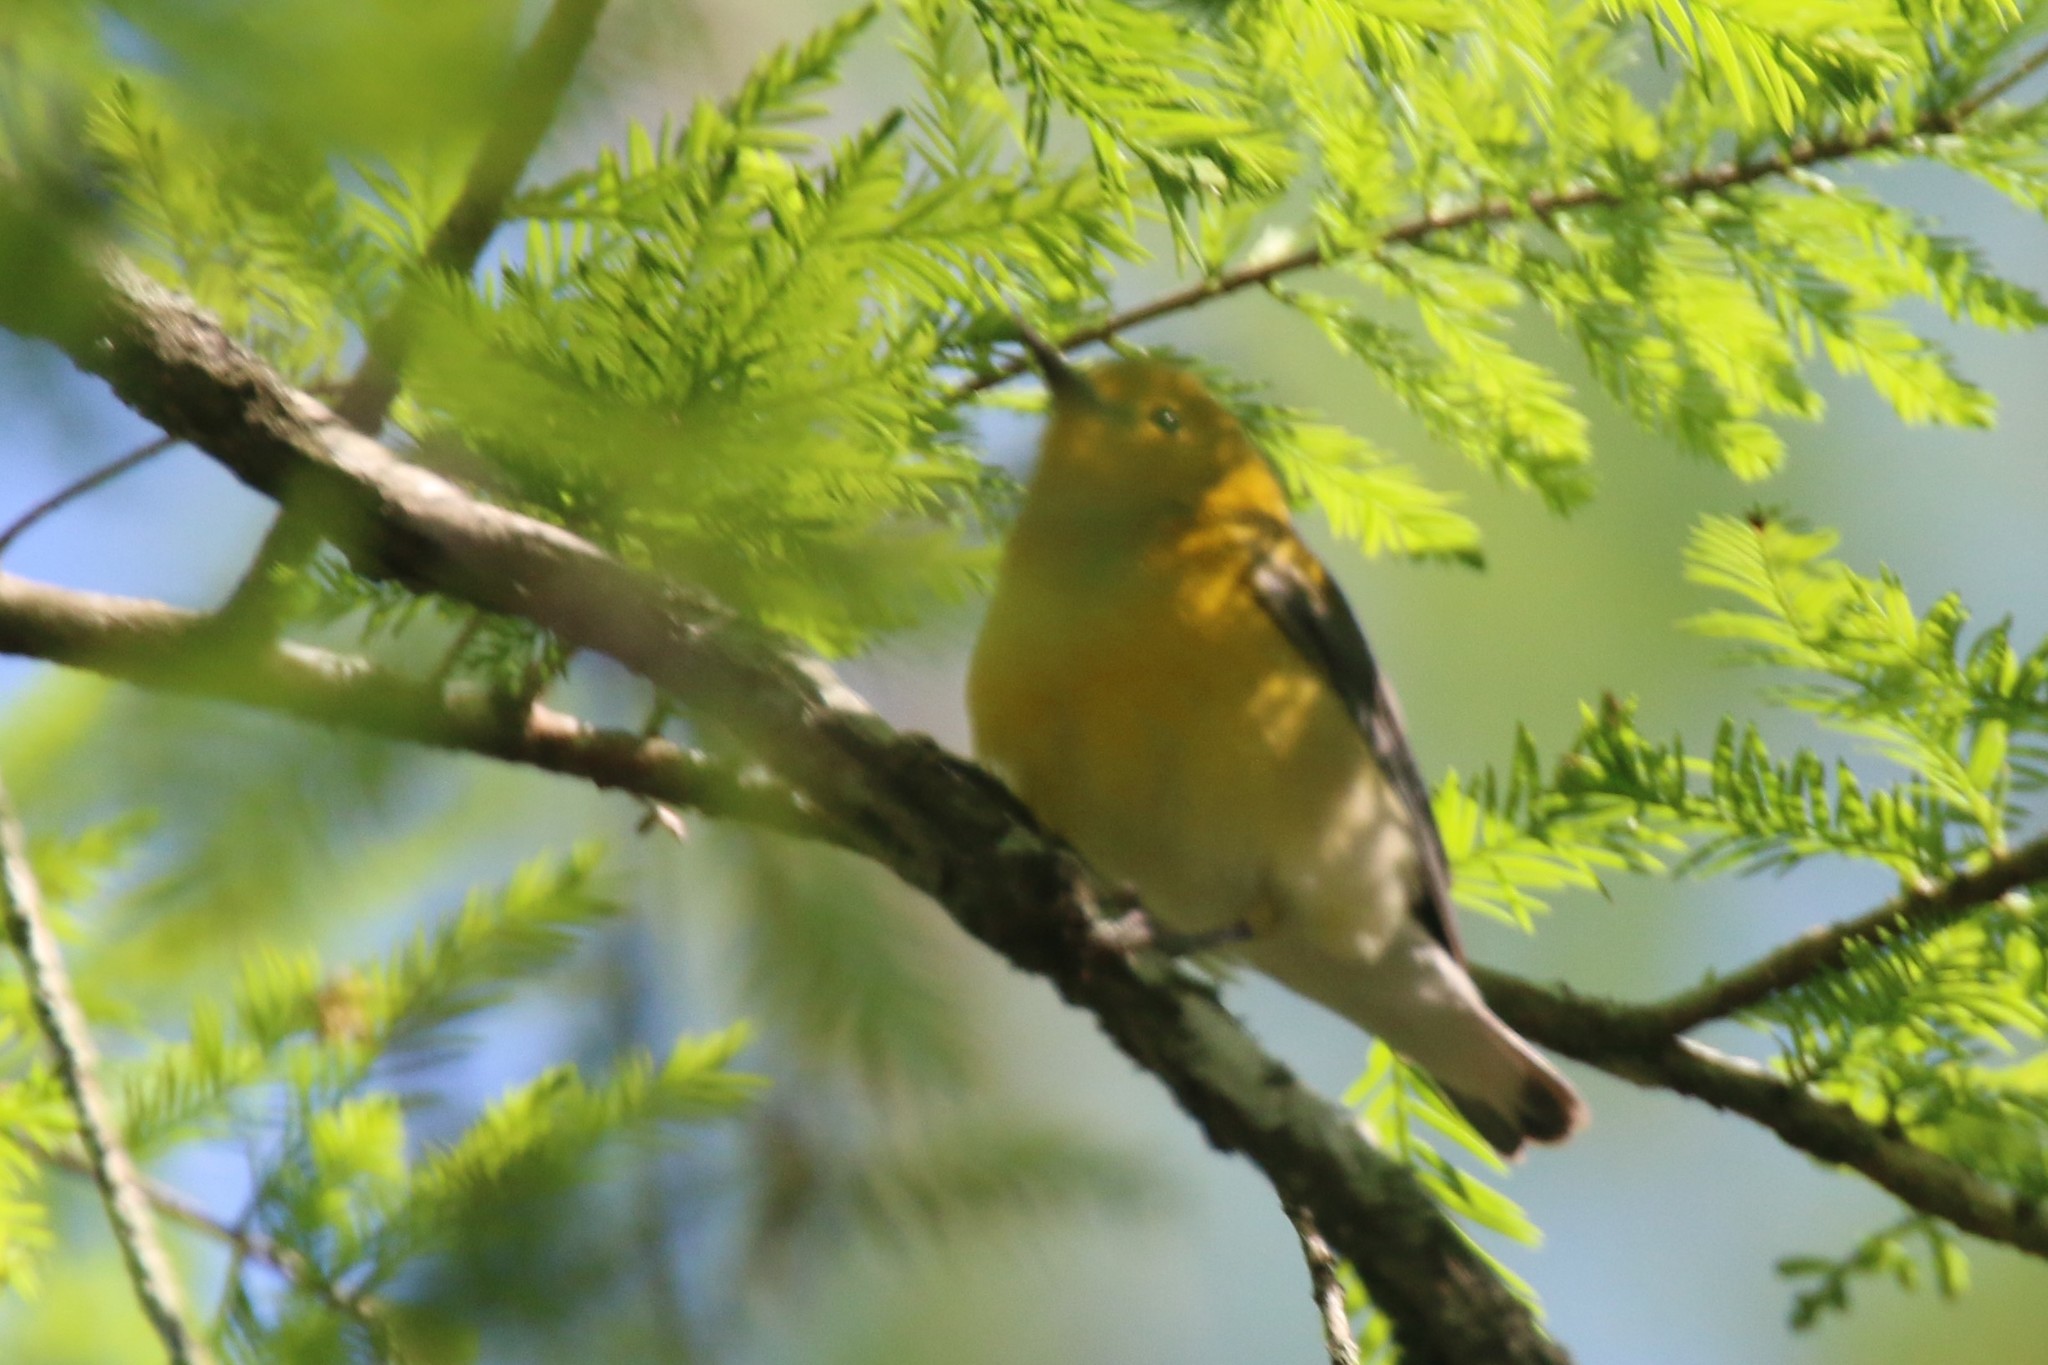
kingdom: Animalia
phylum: Chordata
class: Aves
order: Passeriformes
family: Parulidae
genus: Protonotaria
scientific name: Protonotaria citrea
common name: Prothonotary warbler
